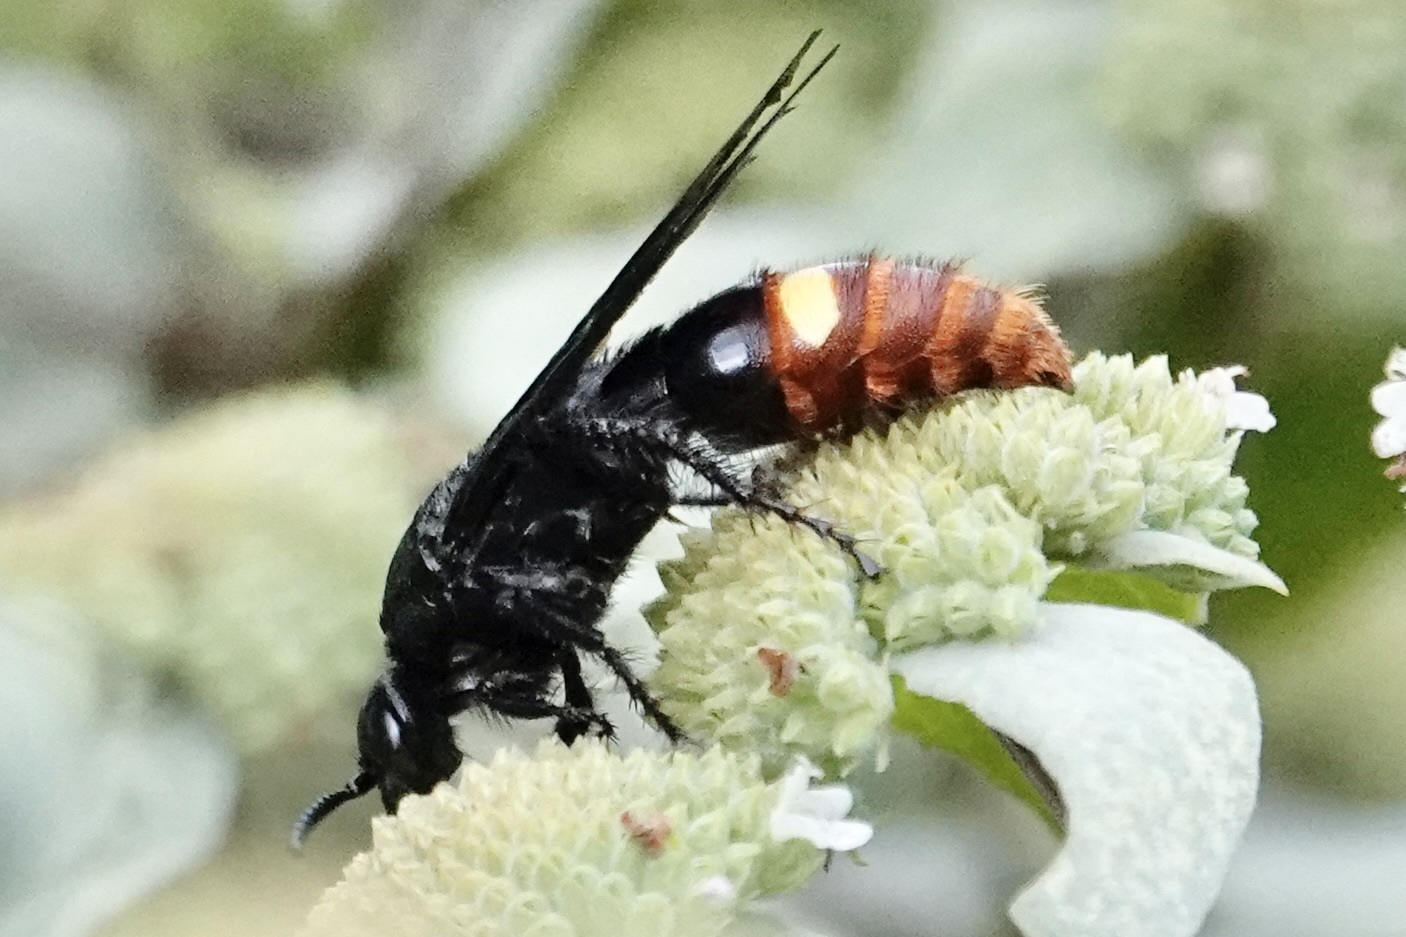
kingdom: Animalia
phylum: Arthropoda
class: Insecta
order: Hymenoptera
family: Scoliidae
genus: Scolia
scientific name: Scolia dubia
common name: Blue-winged scoliid wasp
